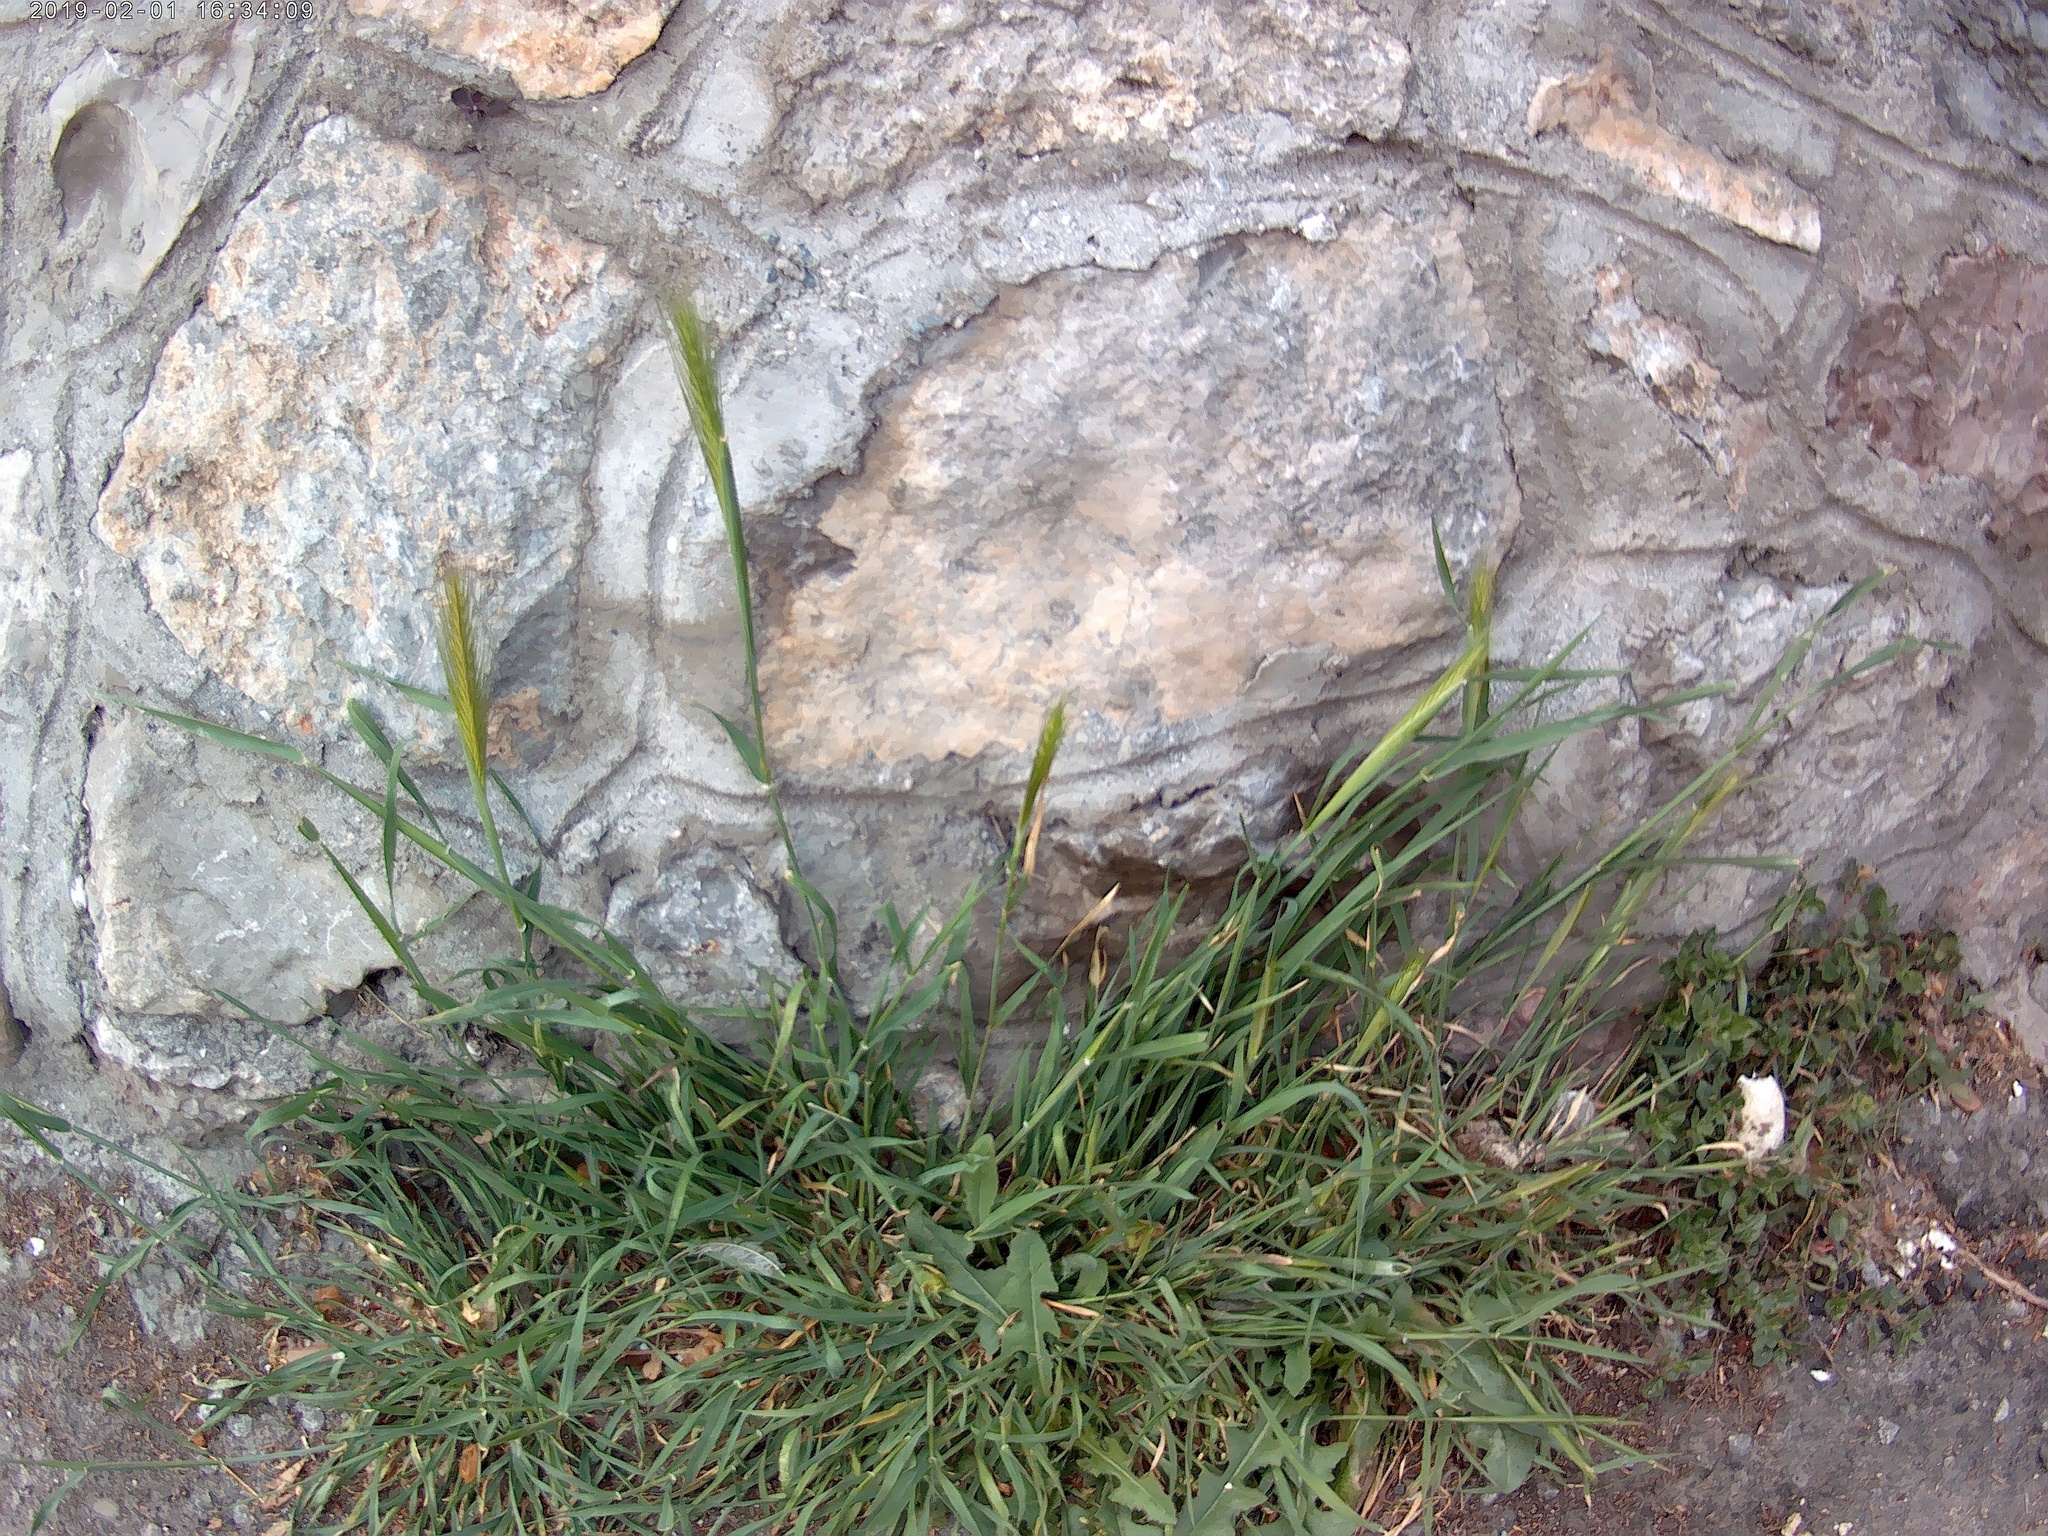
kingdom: Plantae
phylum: Tracheophyta
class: Liliopsida
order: Poales
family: Poaceae
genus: Hordeum
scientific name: Hordeum murinum
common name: Wall barley
